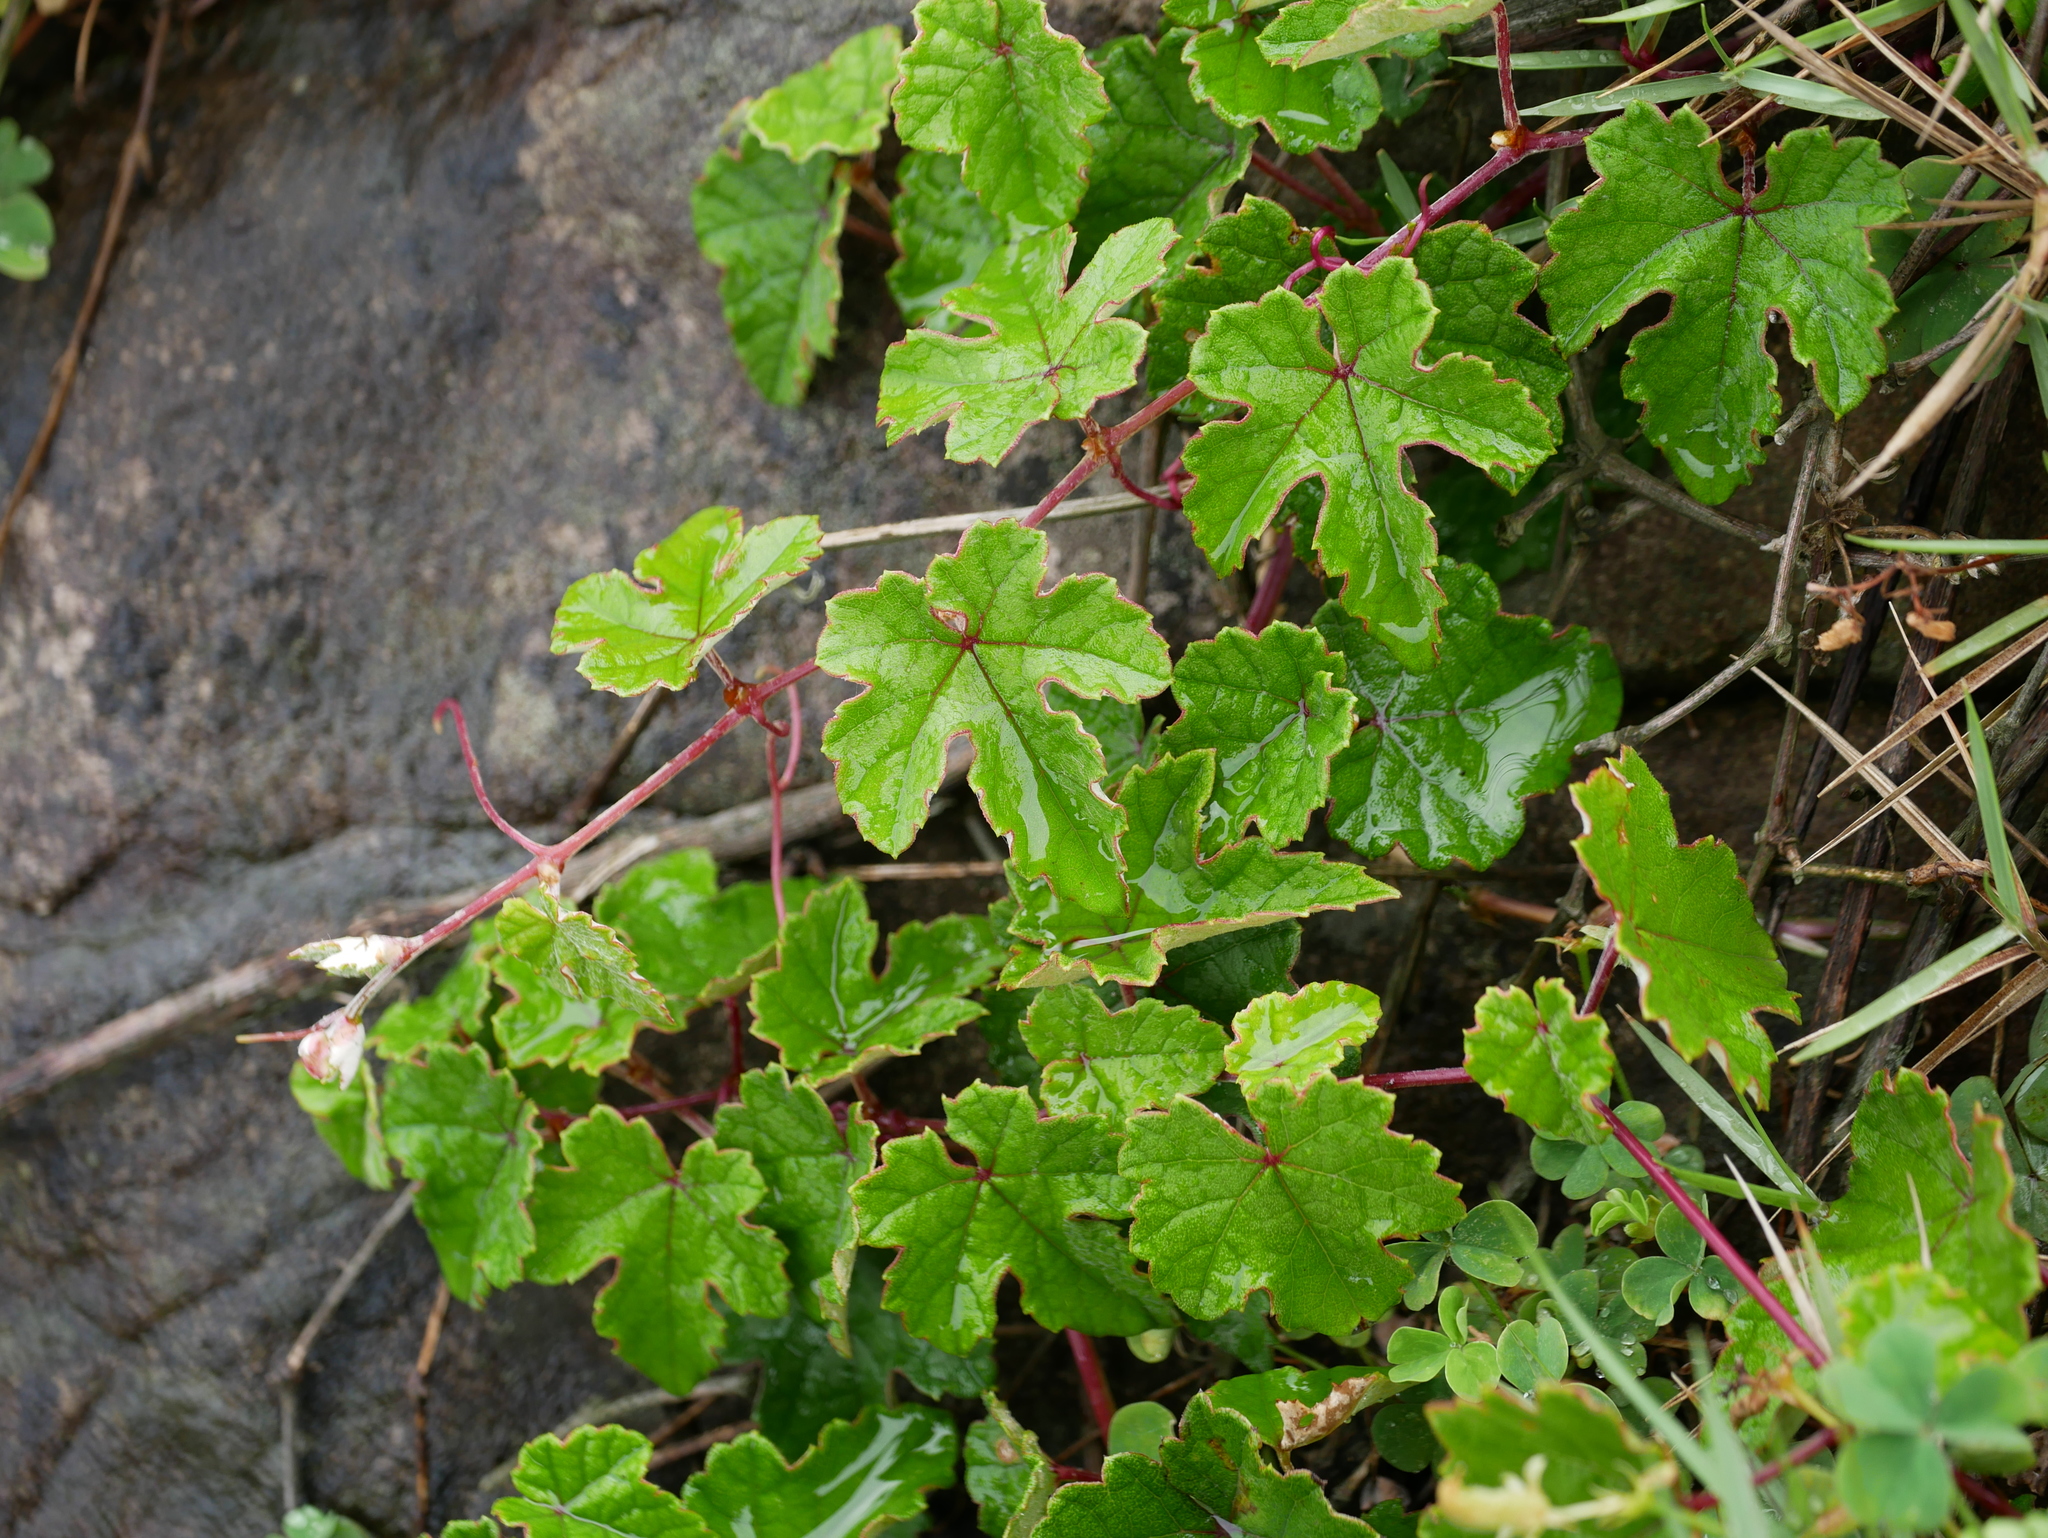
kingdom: Plantae
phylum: Tracheophyta
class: Magnoliopsida
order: Vitales
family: Vitaceae
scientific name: Vitaceae
